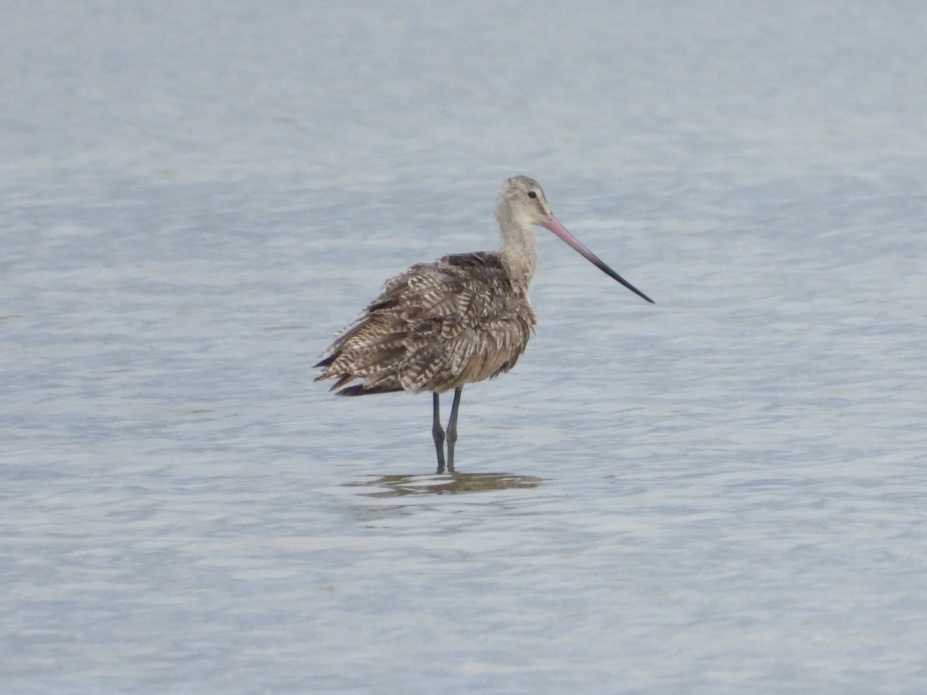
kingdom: Animalia
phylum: Chordata
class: Aves
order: Charadriiformes
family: Scolopacidae
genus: Limosa
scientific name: Limosa fedoa
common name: Marbled godwit
